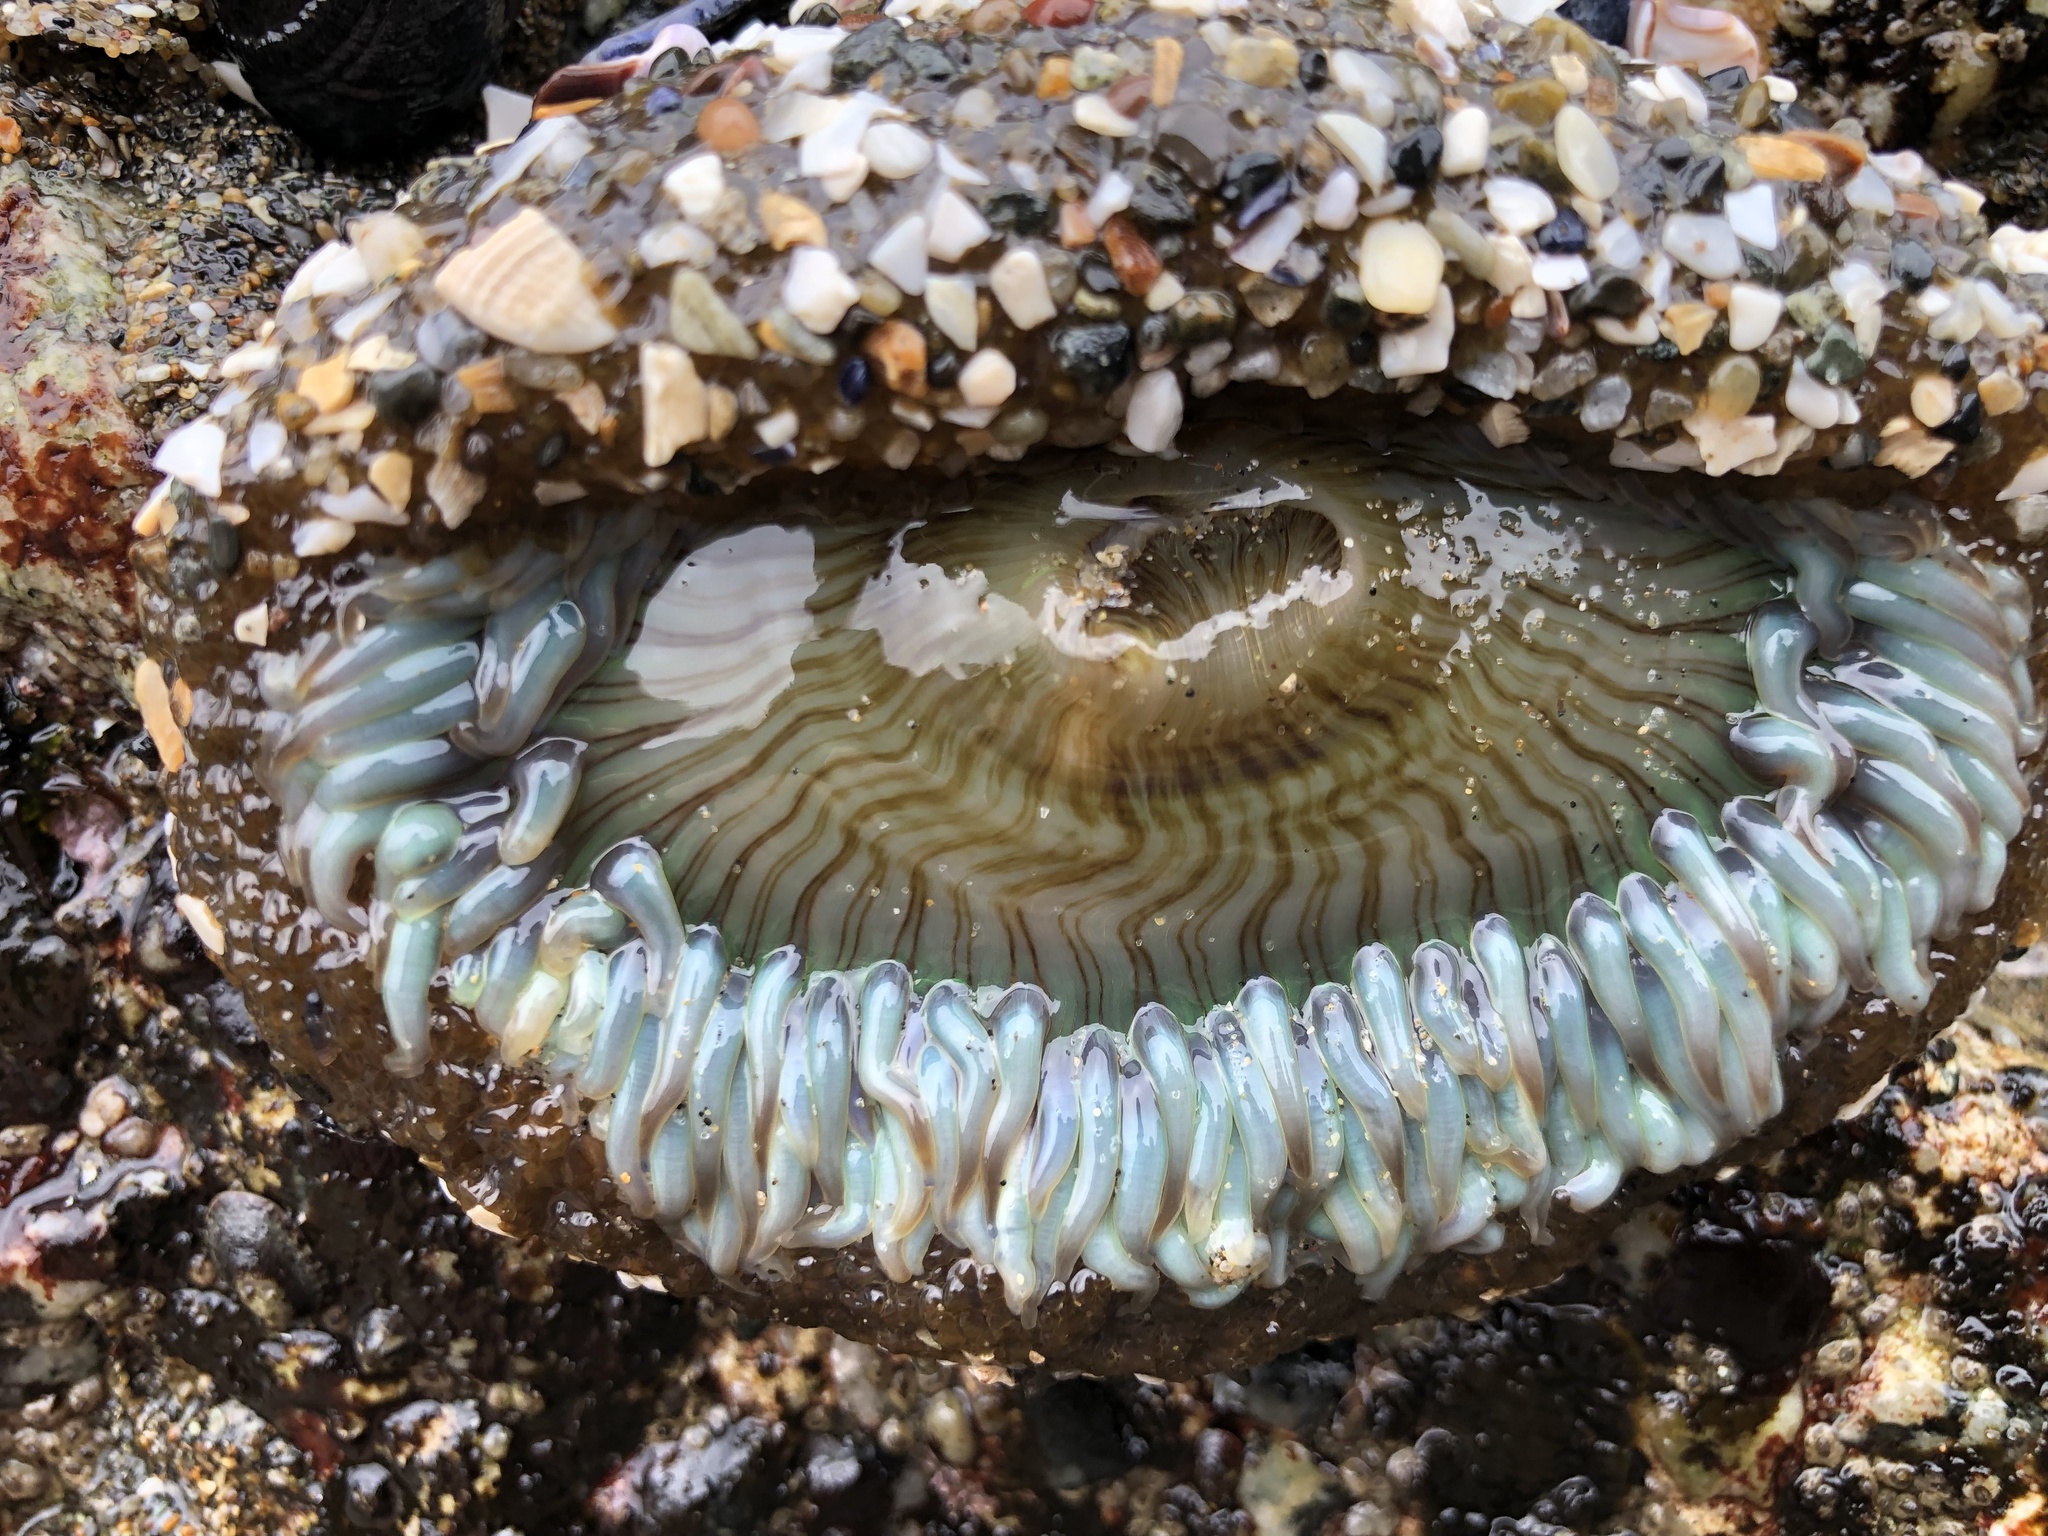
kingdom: Animalia
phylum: Cnidaria
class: Anthozoa
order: Actiniaria
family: Actiniidae
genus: Anthopleura
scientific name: Anthopleura sola
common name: Sun anemone
